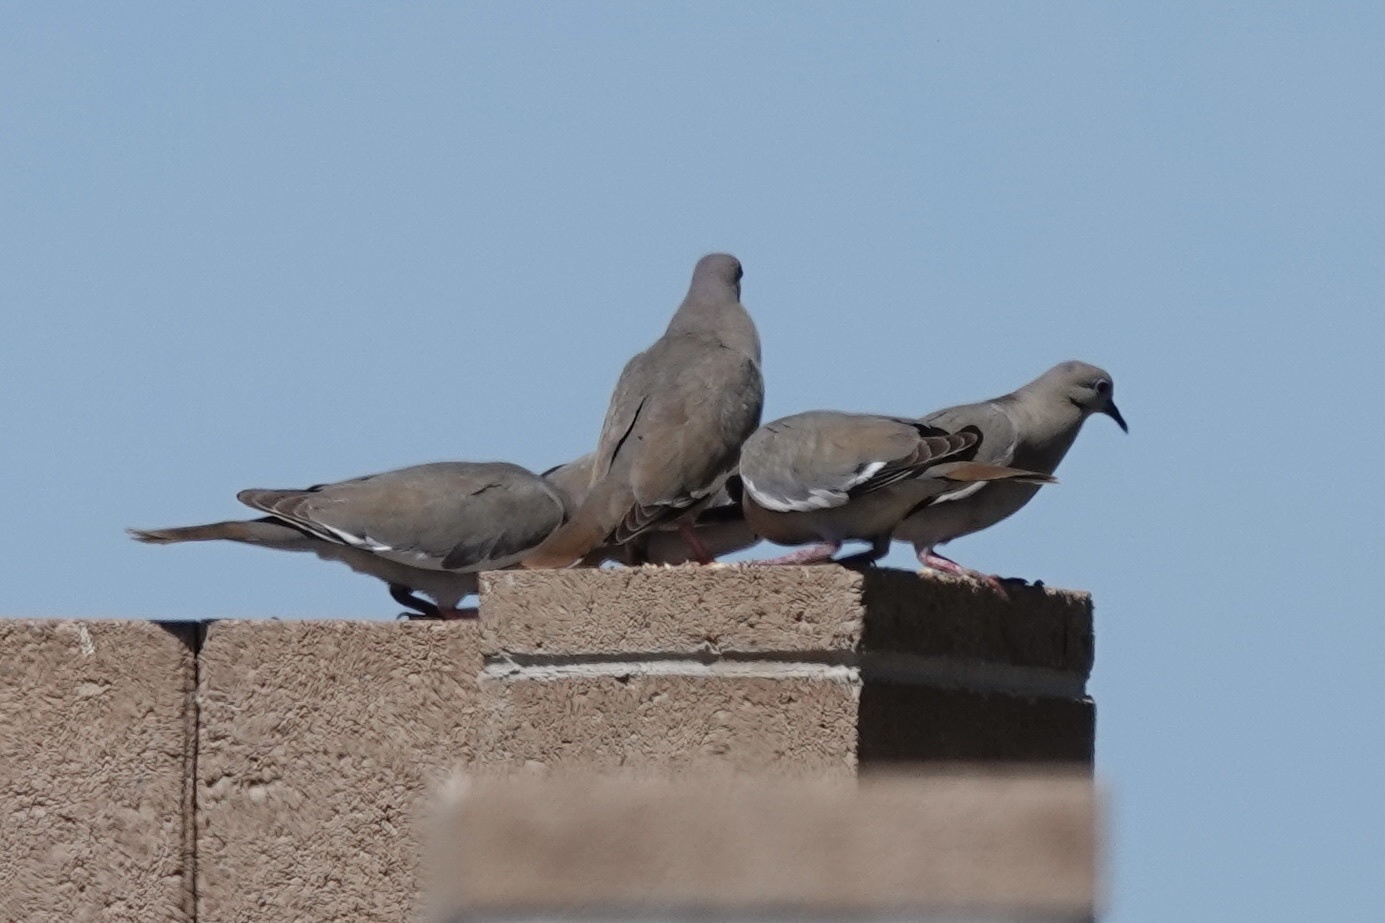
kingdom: Animalia
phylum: Chordata
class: Aves
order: Columbiformes
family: Columbidae
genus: Zenaida
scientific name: Zenaida asiatica
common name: White-winged dove
